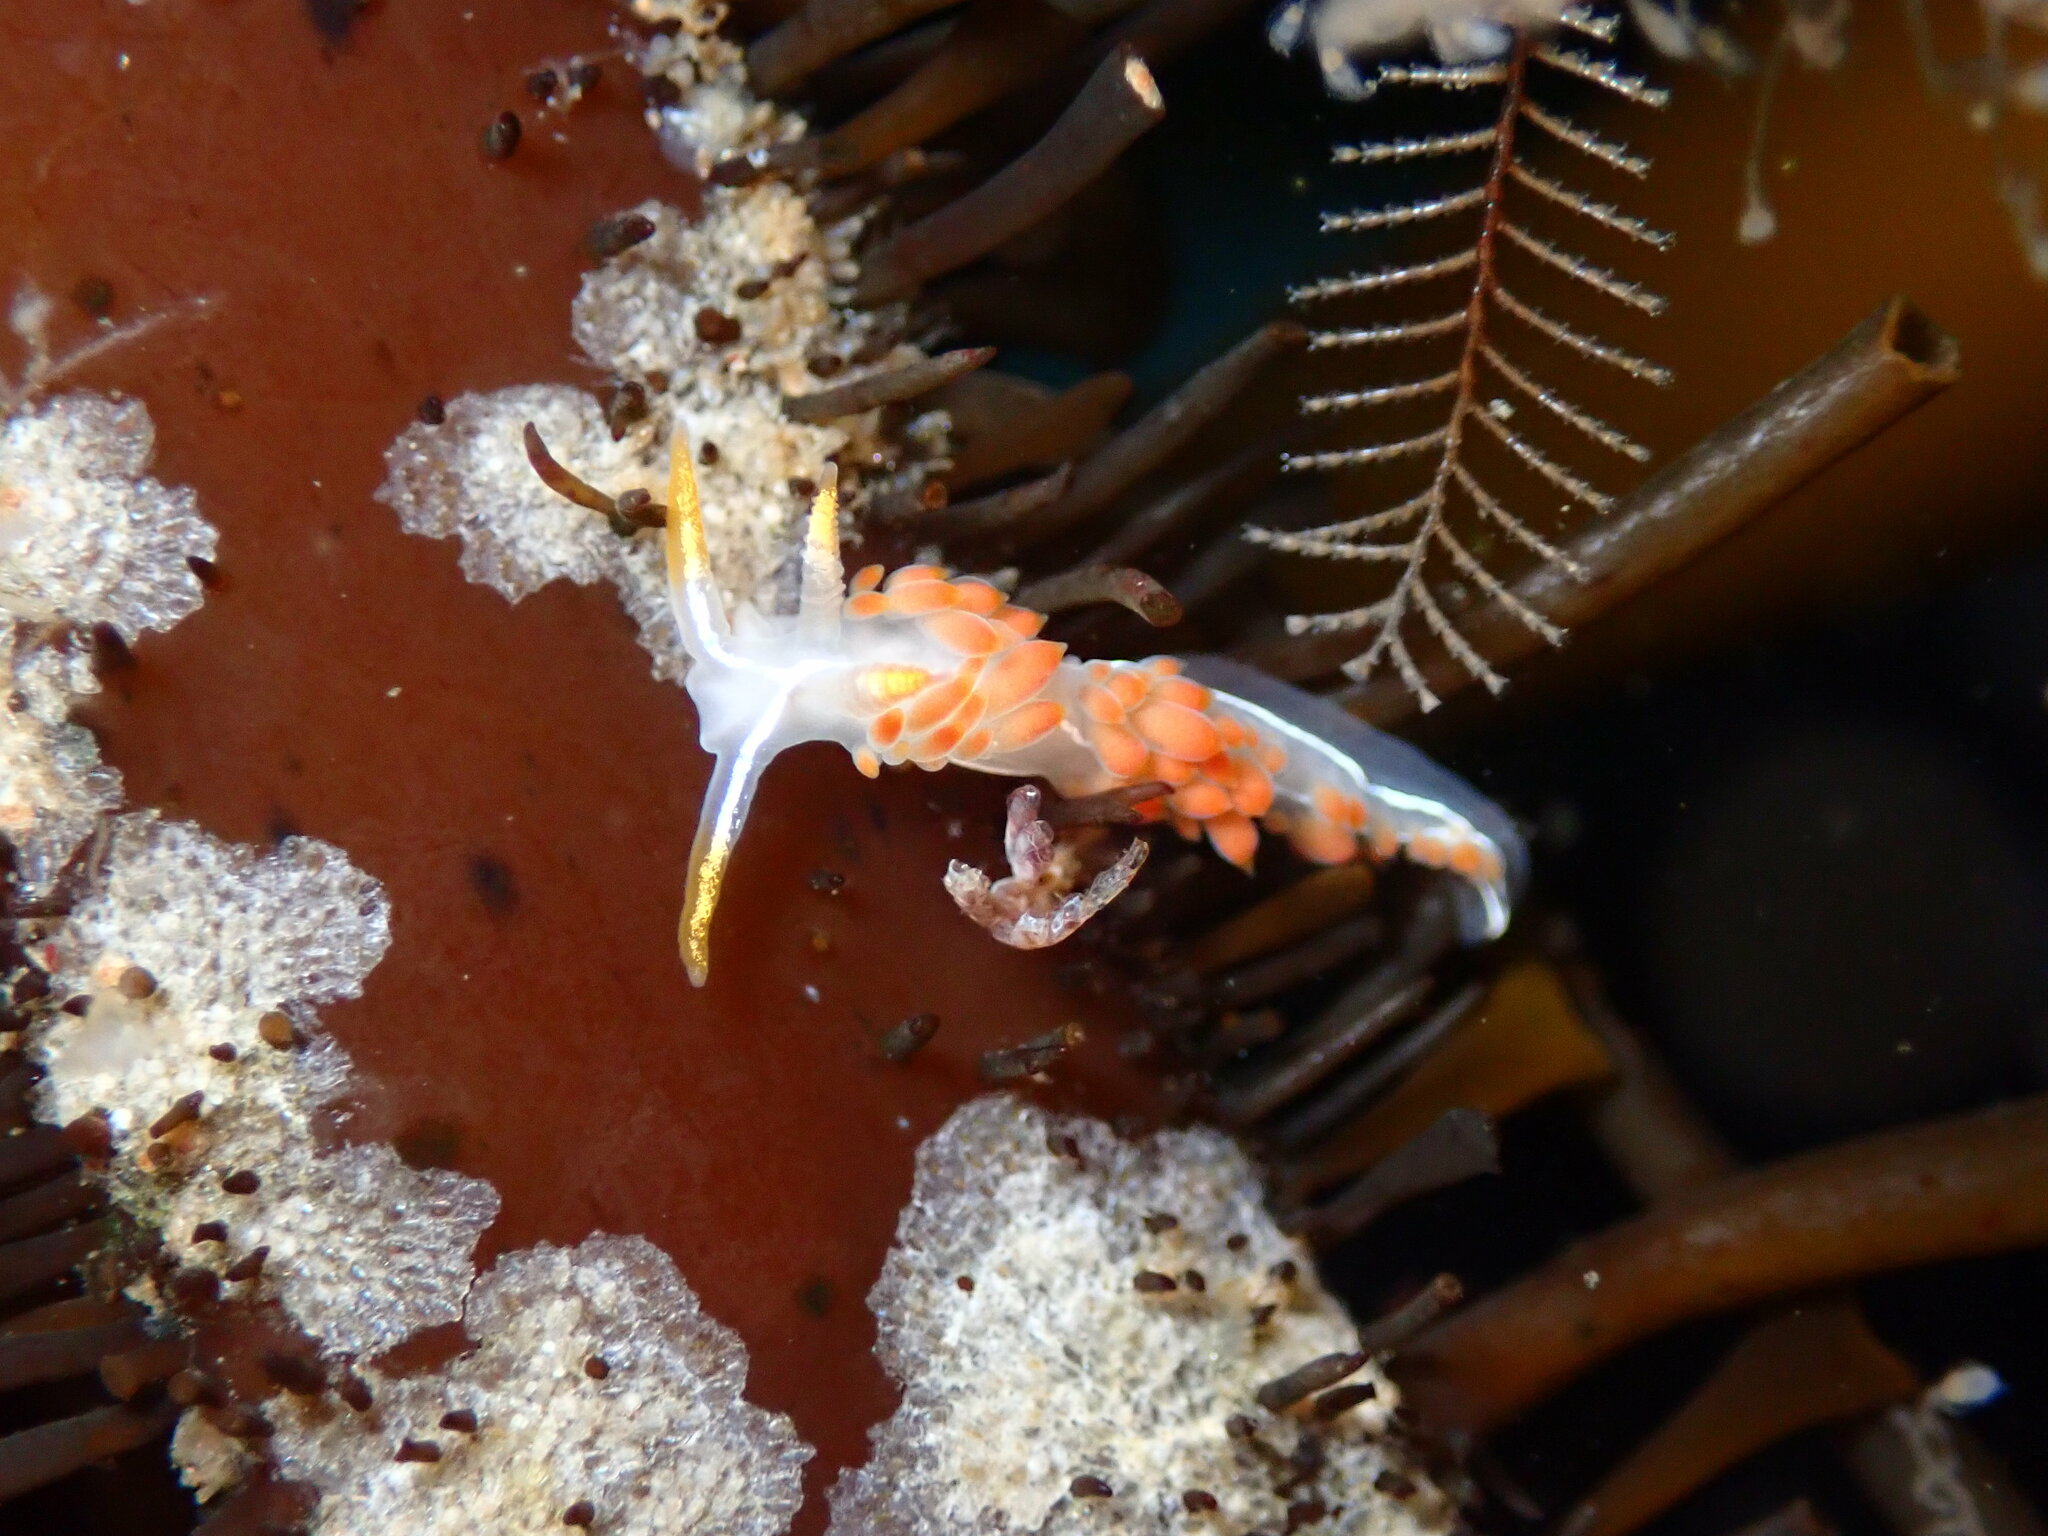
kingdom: Animalia
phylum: Mollusca
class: Gastropoda
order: Nudibranchia
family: Coryphellidae
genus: Coryphella
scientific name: Coryphella trilineata
